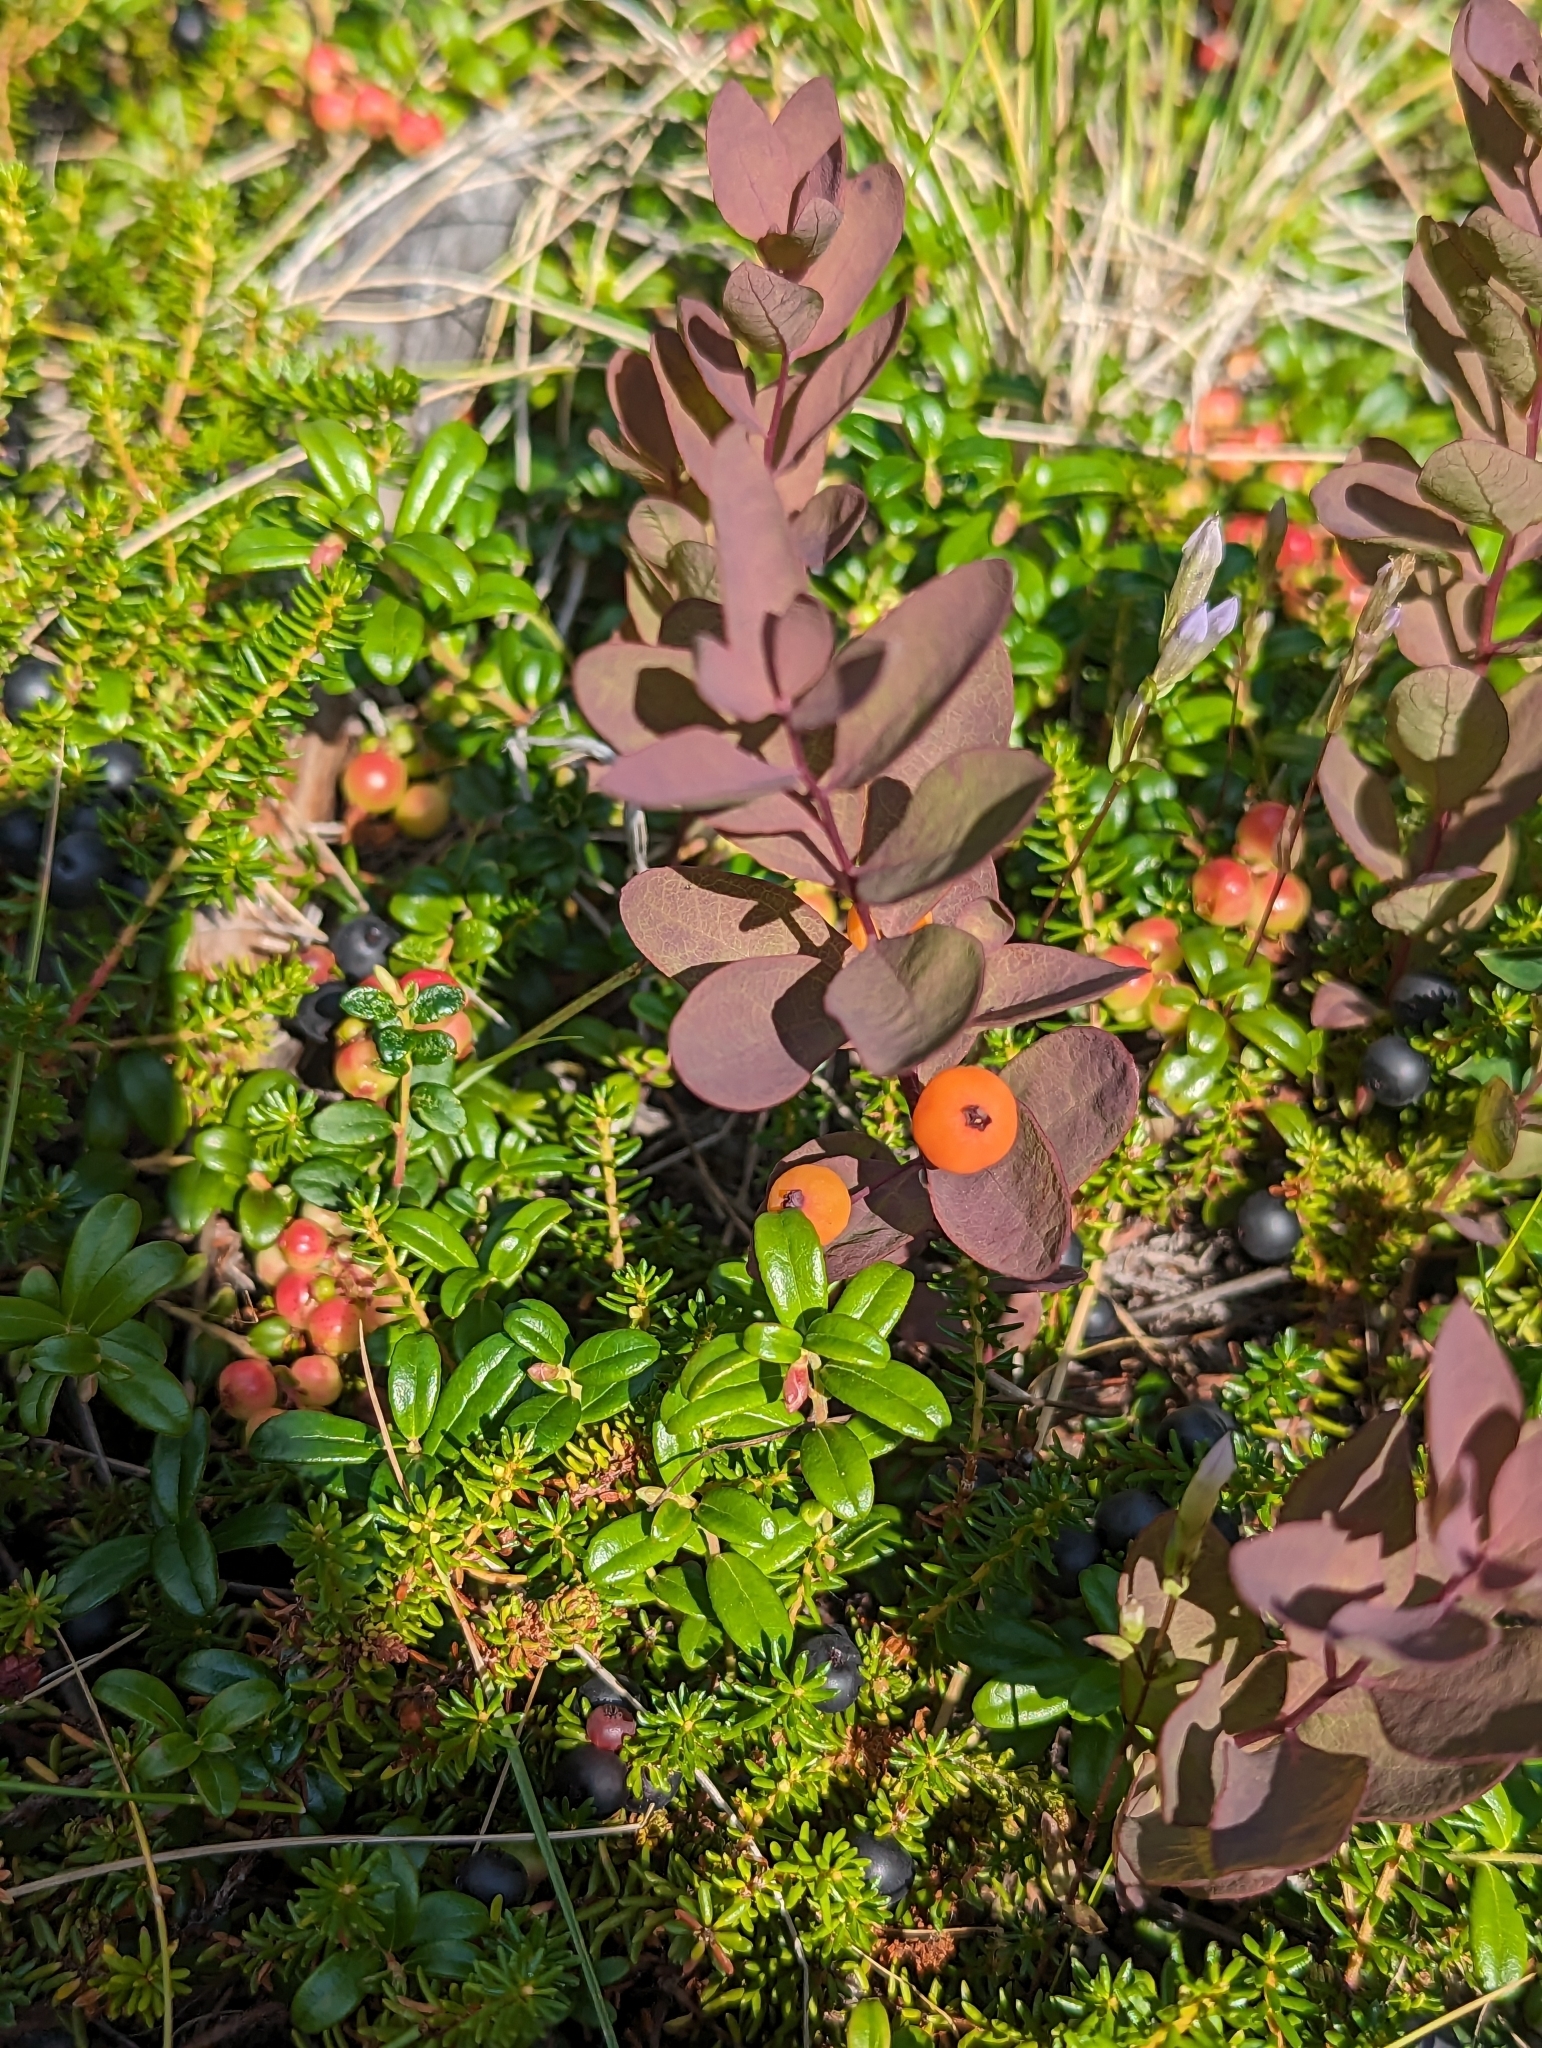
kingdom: Plantae
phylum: Tracheophyta
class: Magnoliopsida
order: Santalales
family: Comandraceae
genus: Geocaulon
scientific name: Geocaulon lividum
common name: Earthberry
